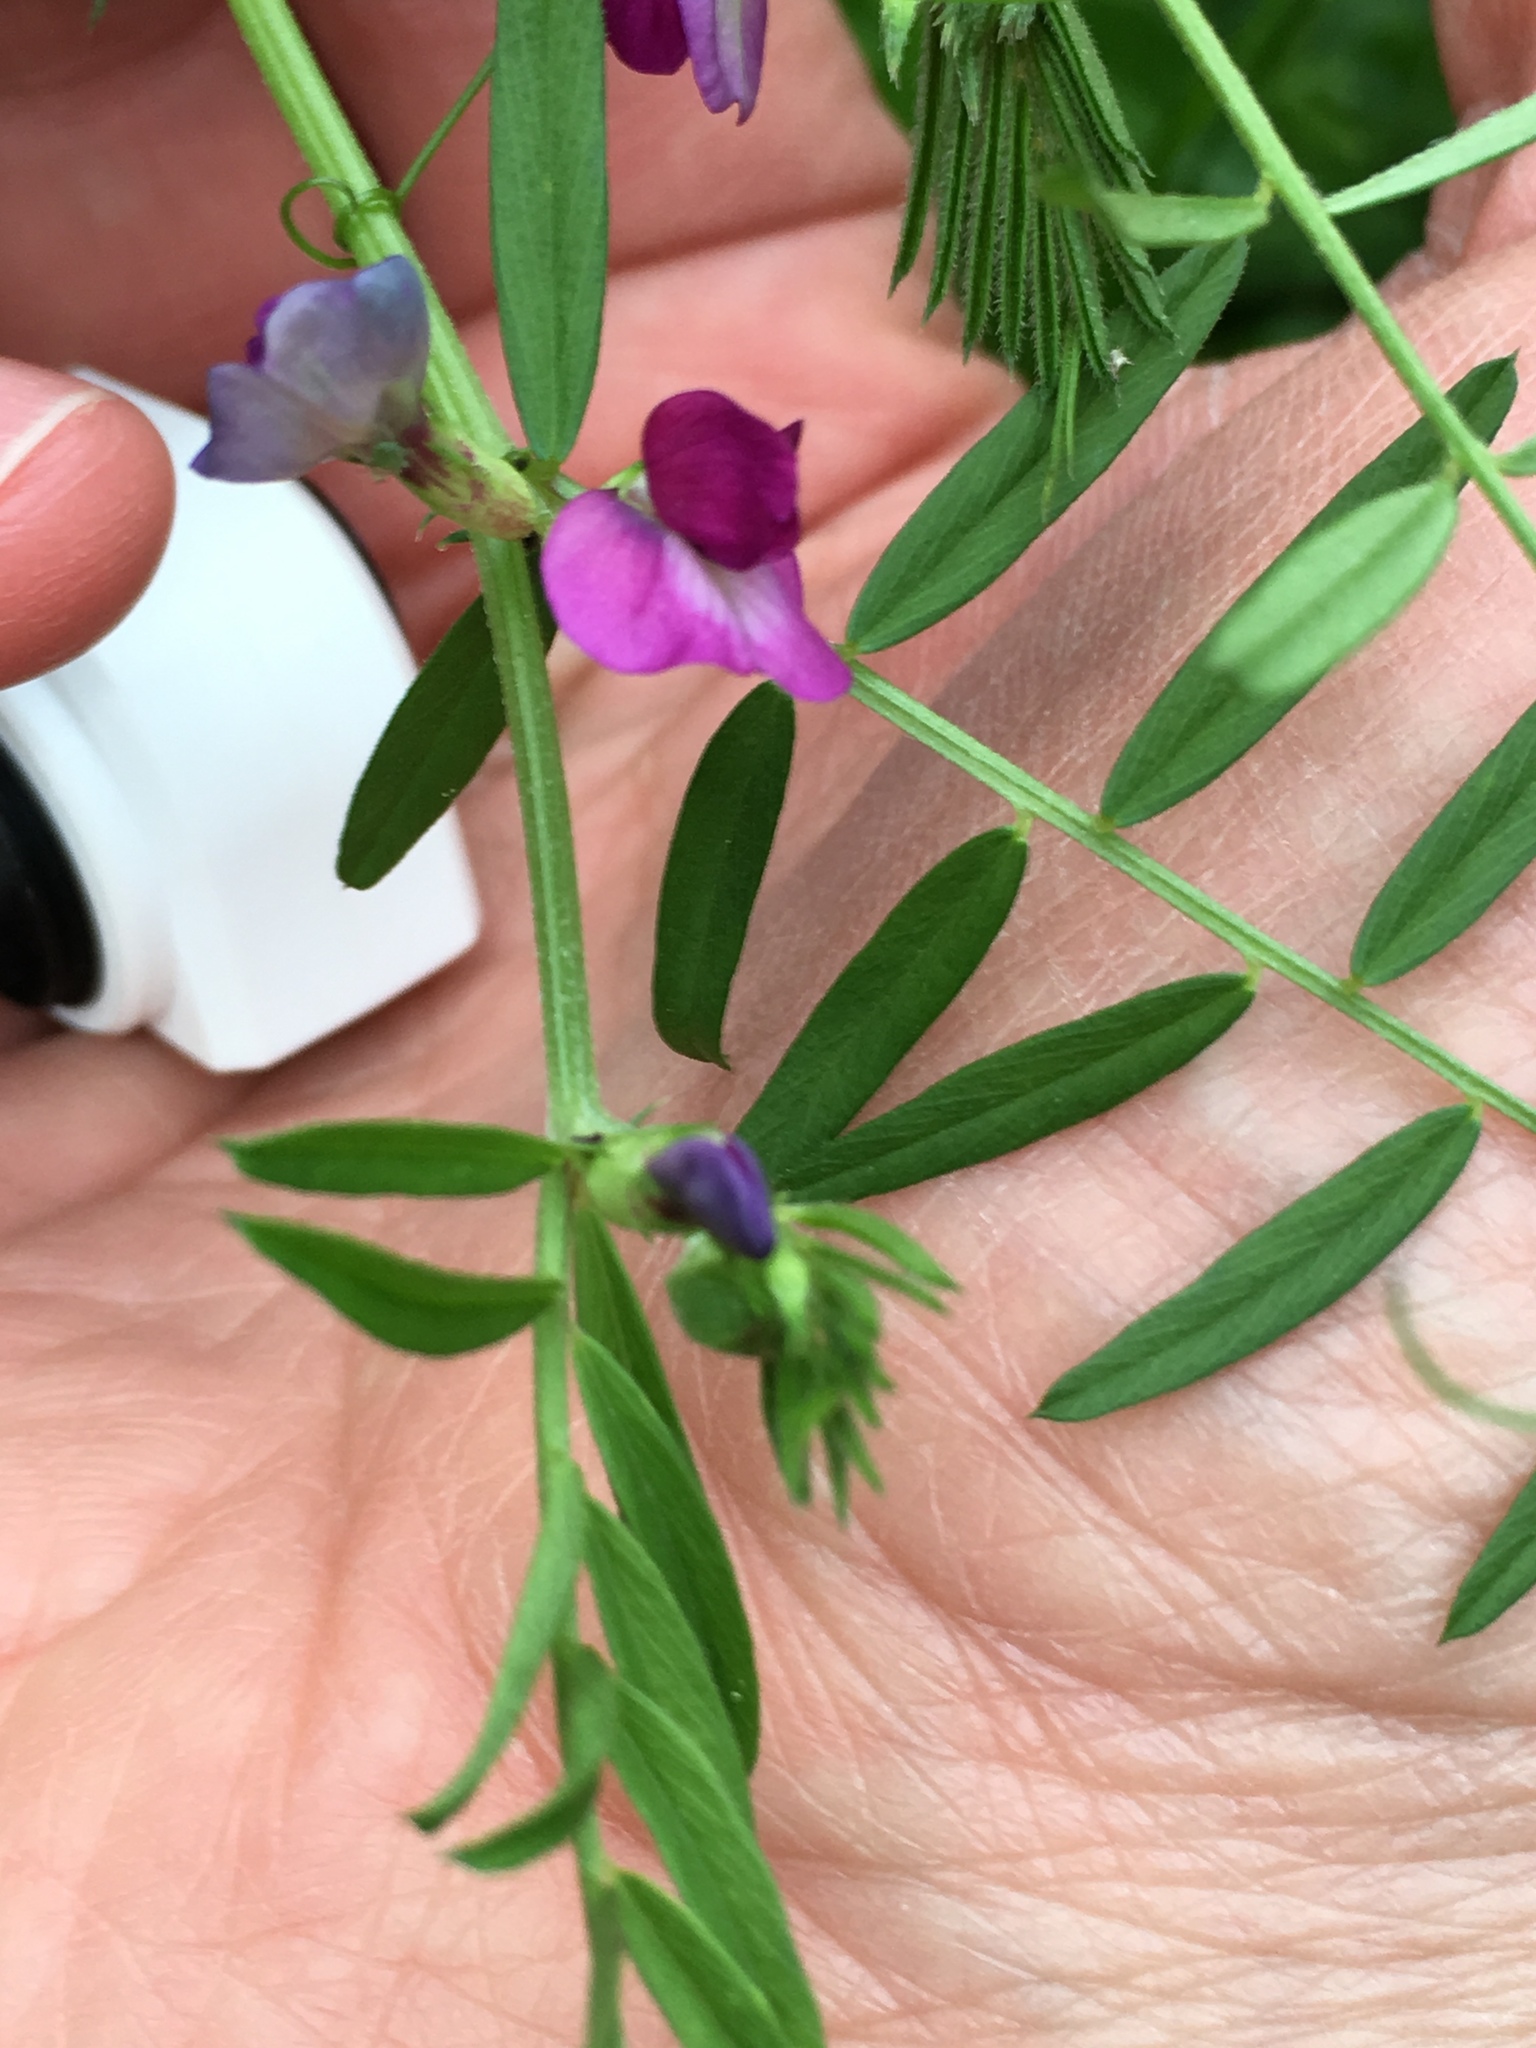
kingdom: Plantae
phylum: Tracheophyta
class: Magnoliopsida
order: Fabales
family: Fabaceae
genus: Vicia
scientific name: Vicia sativa
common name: Garden vetch
